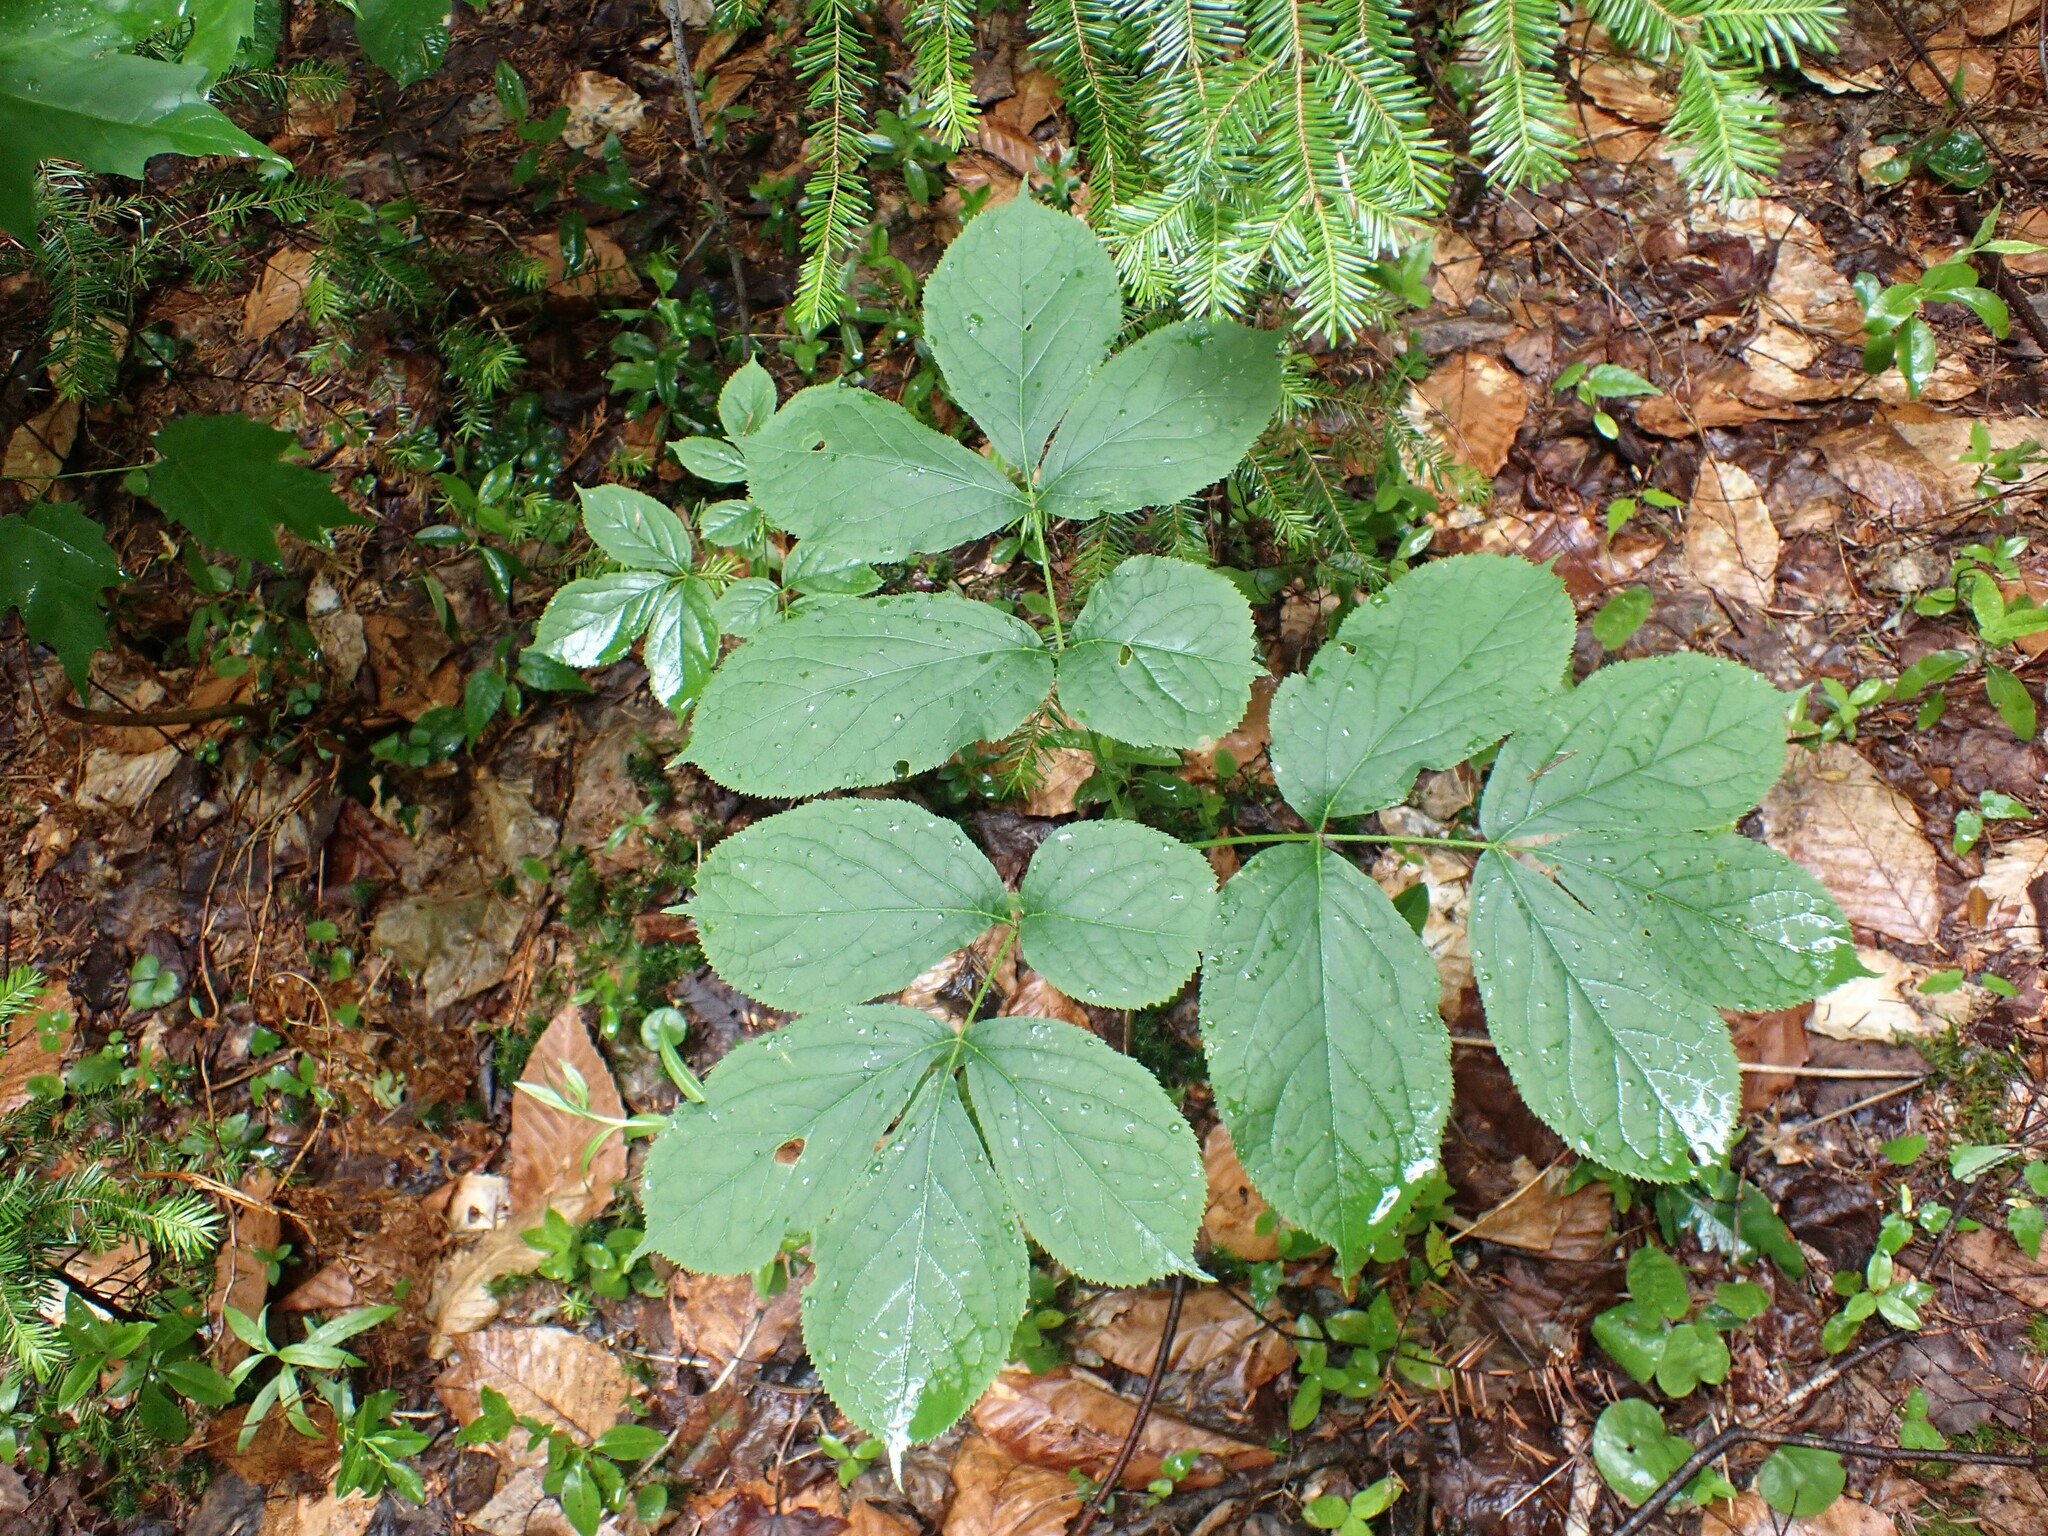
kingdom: Plantae
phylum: Tracheophyta
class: Magnoliopsida
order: Apiales
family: Araliaceae
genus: Aralia
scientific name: Aralia nudicaulis
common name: Wild sarsaparilla
